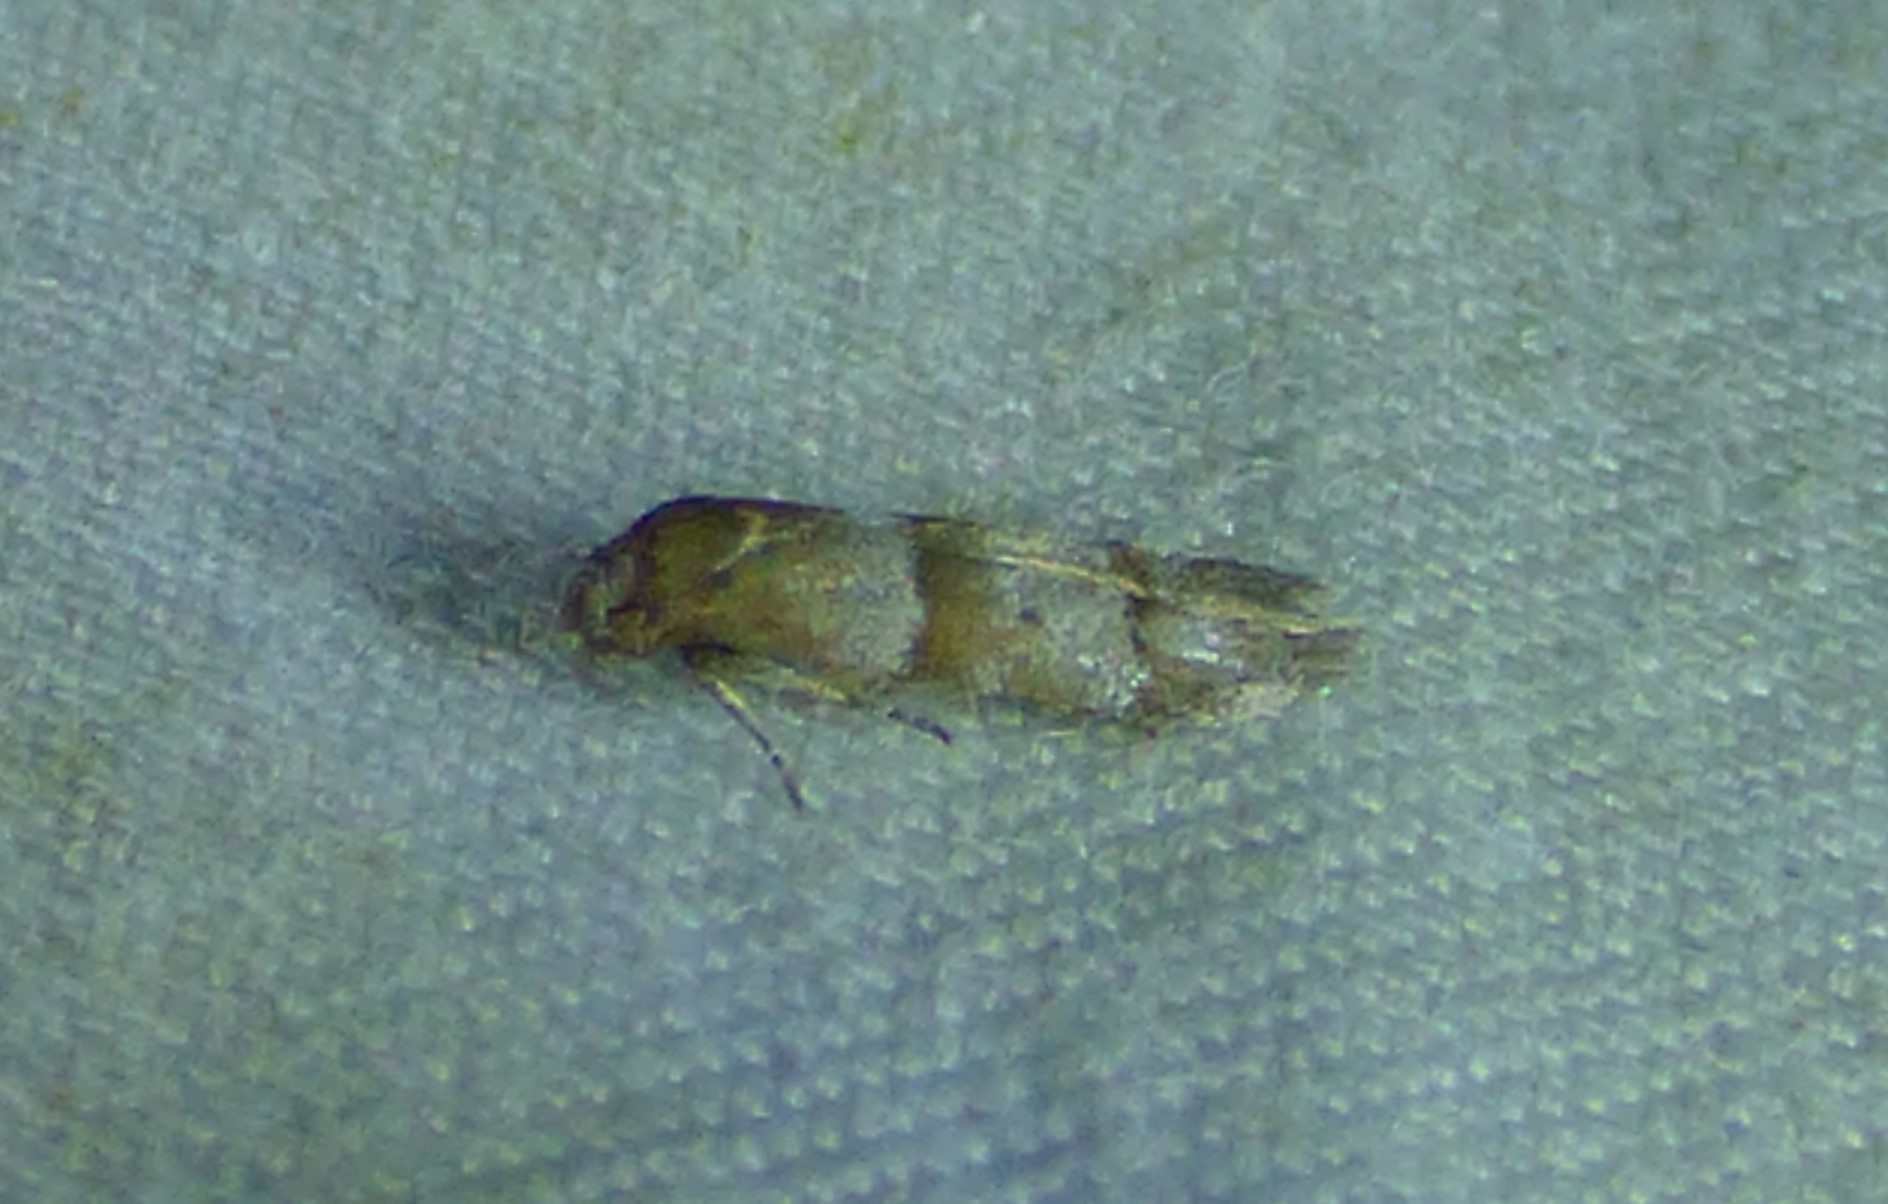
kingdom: Animalia
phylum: Arthropoda
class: Insecta
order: Lepidoptera
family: Blastobasidae
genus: Blastobasis
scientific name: Blastobasis pulchella
